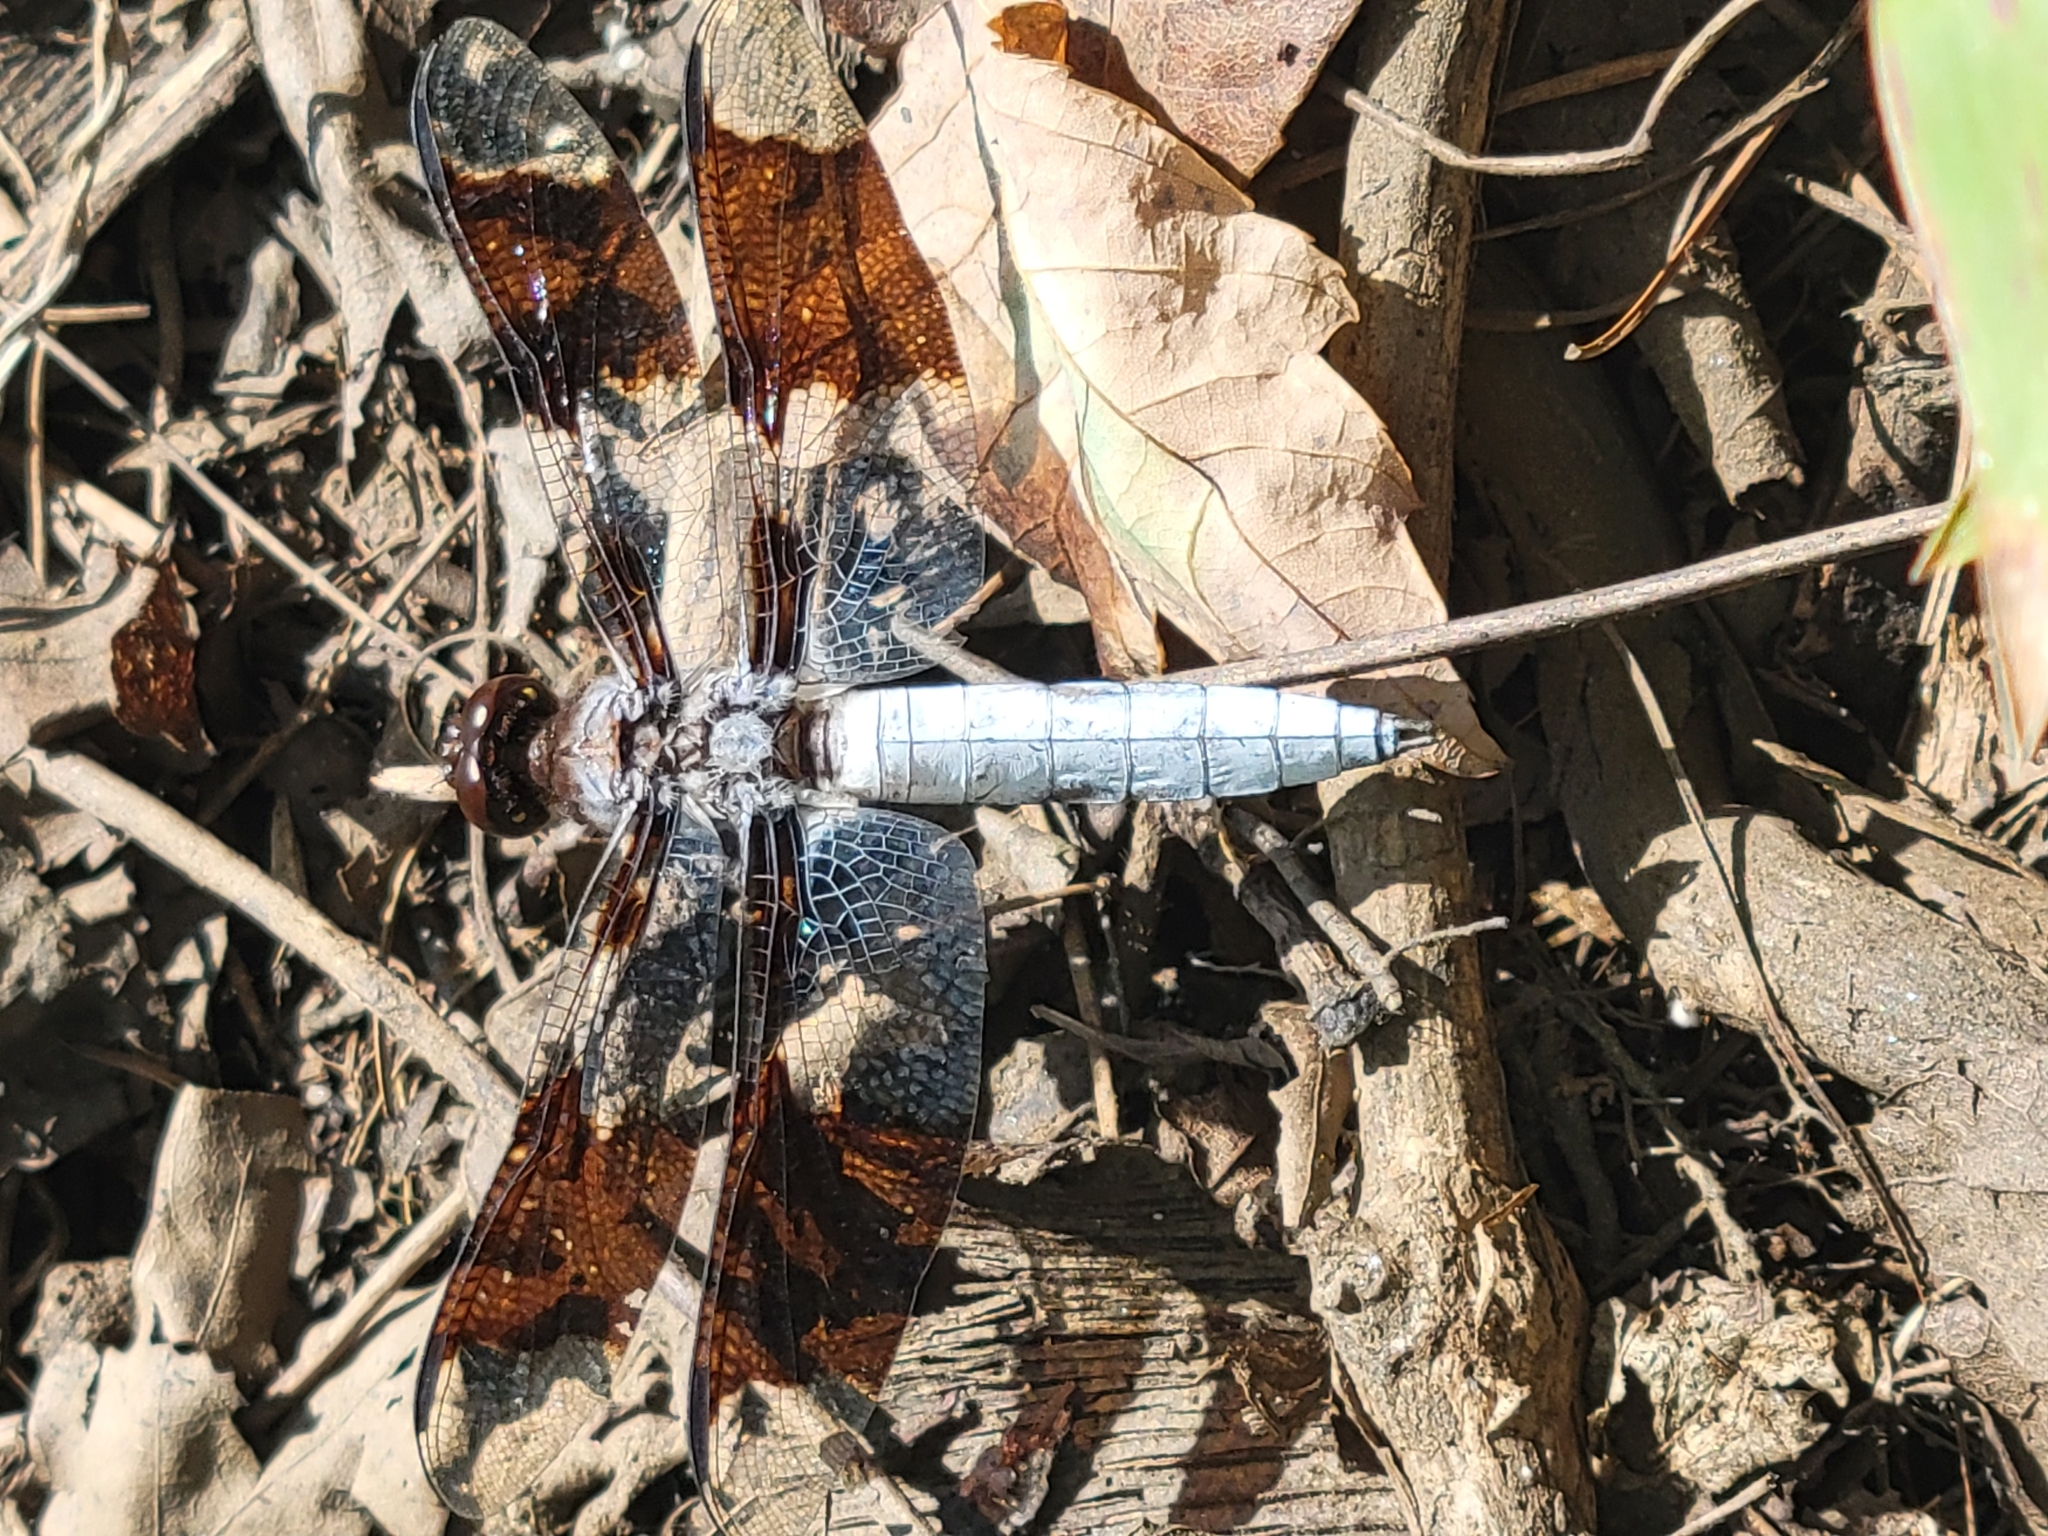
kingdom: Animalia
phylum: Arthropoda
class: Insecta
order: Odonata
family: Libellulidae
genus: Plathemis
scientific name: Plathemis lydia
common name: Common whitetail
